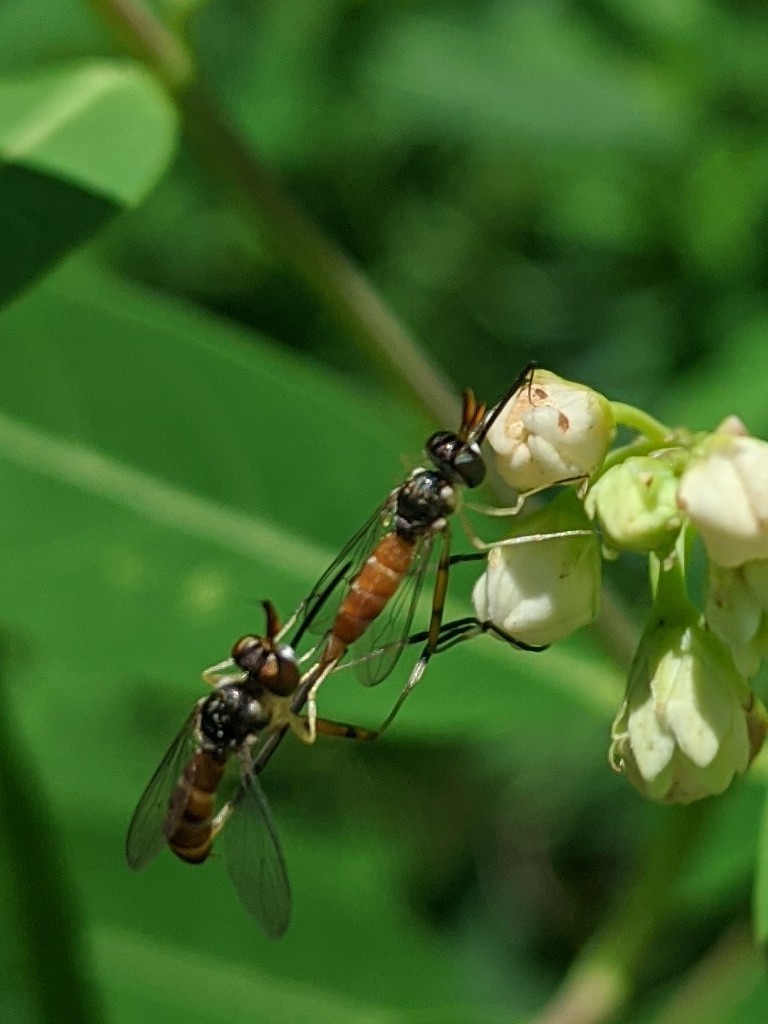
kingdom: Animalia
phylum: Arthropoda
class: Insecta
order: Diptera
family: Conopidae
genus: Stylogaster
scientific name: Stylogaster neglecta
